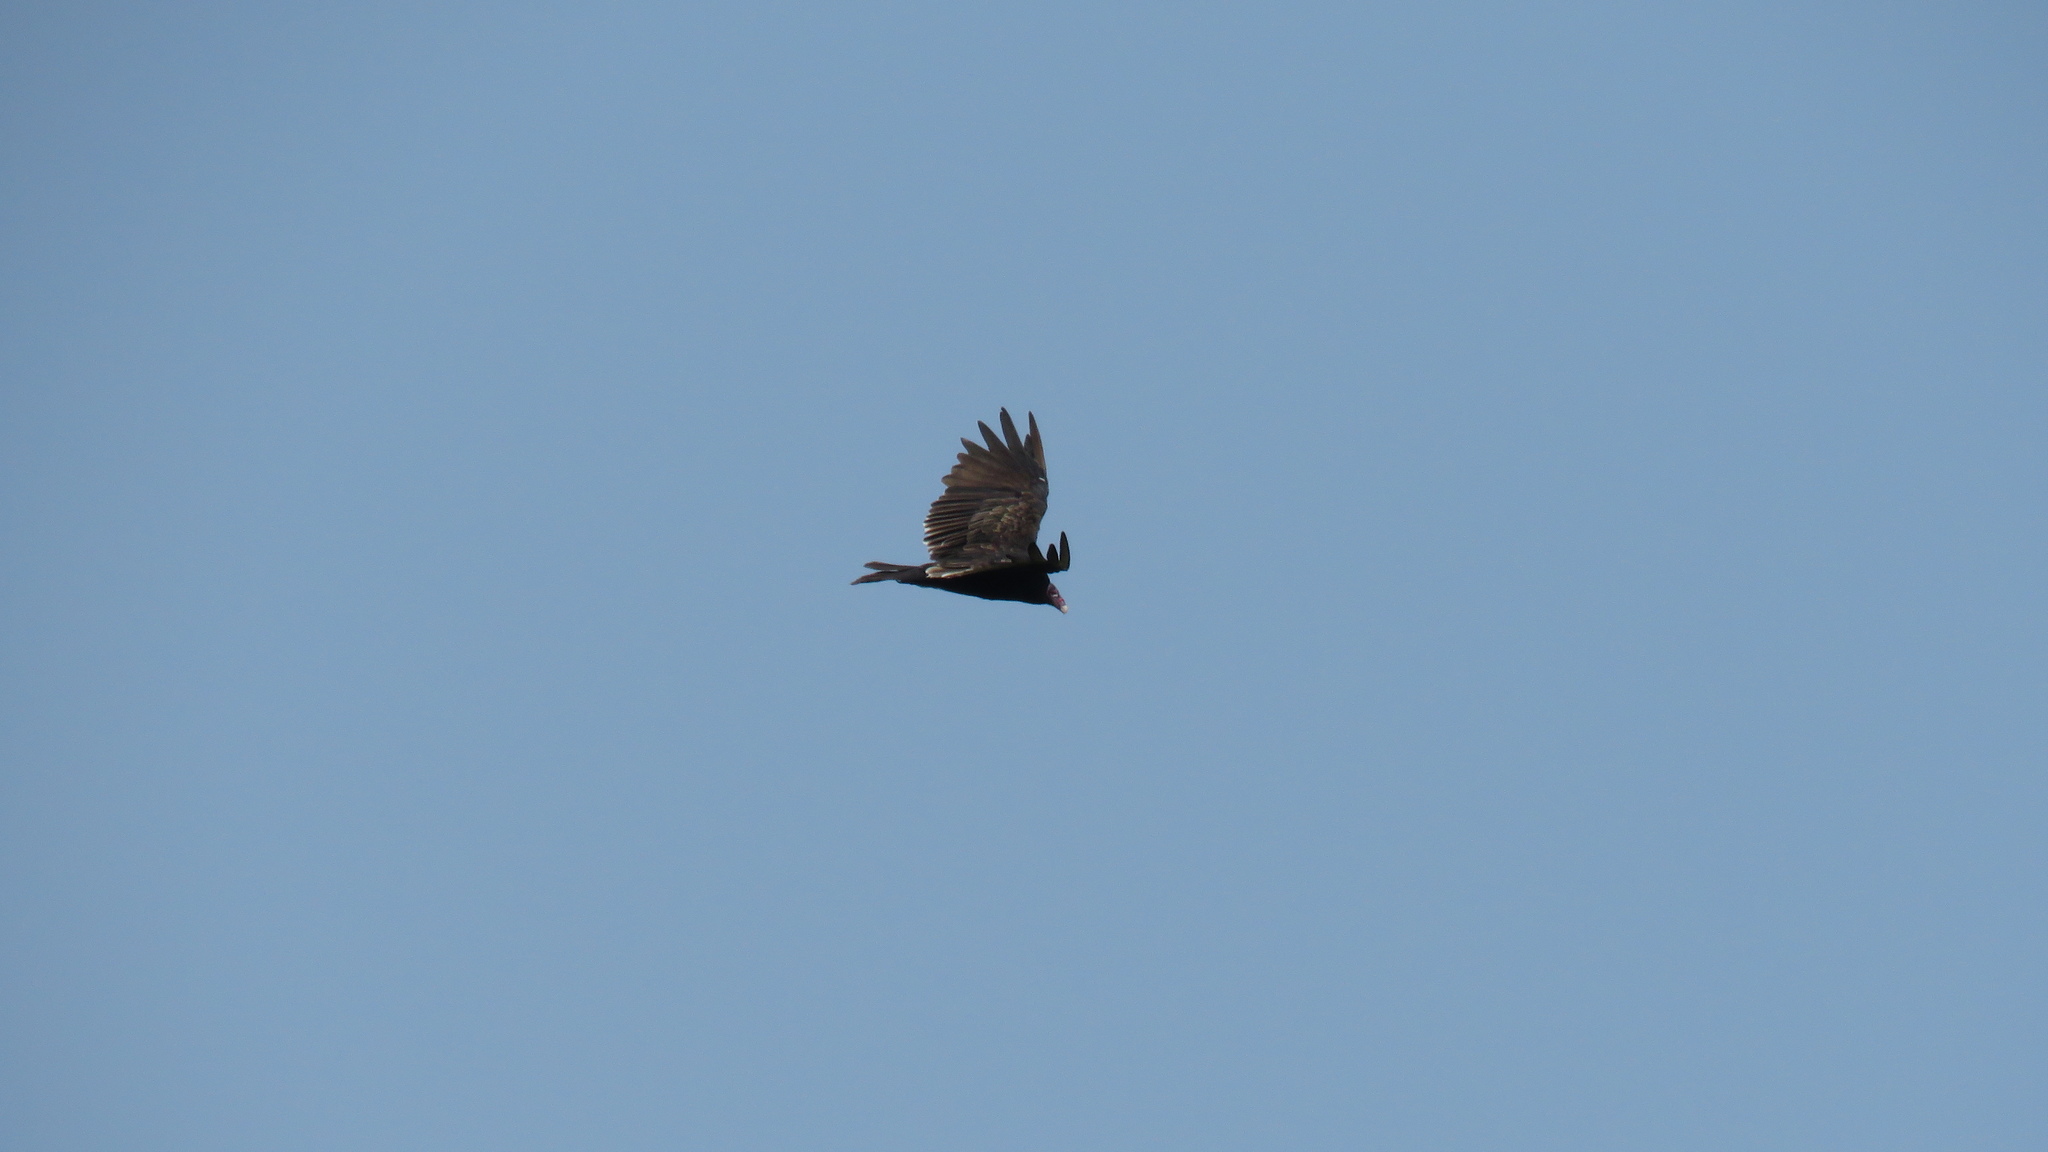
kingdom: Animalia
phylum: Chordata
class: Aves
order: Accipitriformes
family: Cathartidae
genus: Cathartes
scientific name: Cathartes aura
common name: Turkey vulture
